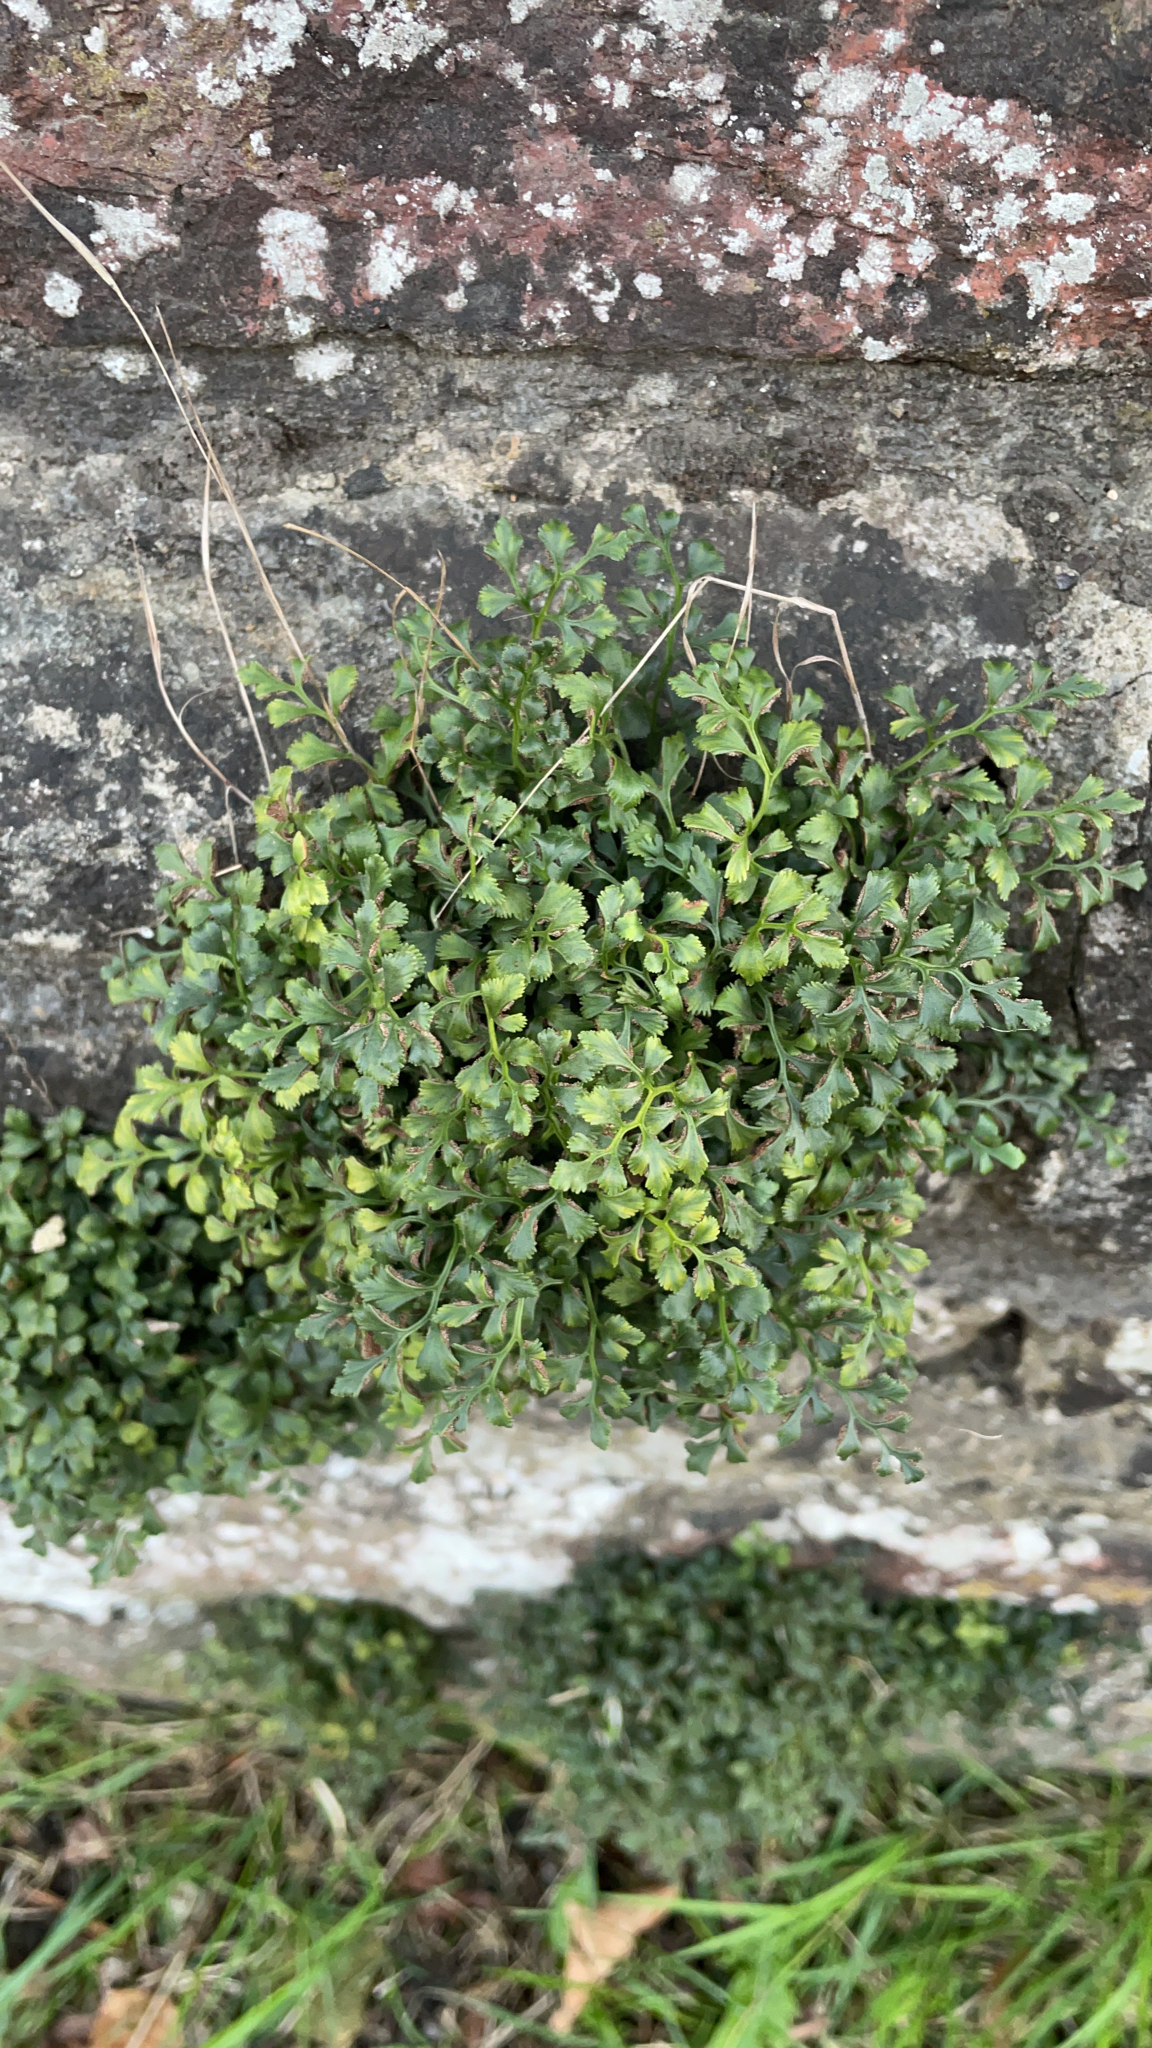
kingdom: Plantae
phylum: Tracheophyta
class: Polypodiopsida
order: Polypodiales
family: Aspleniaceae
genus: Asplenium
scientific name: Asplenium ruta-muraria
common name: Wall-rue
